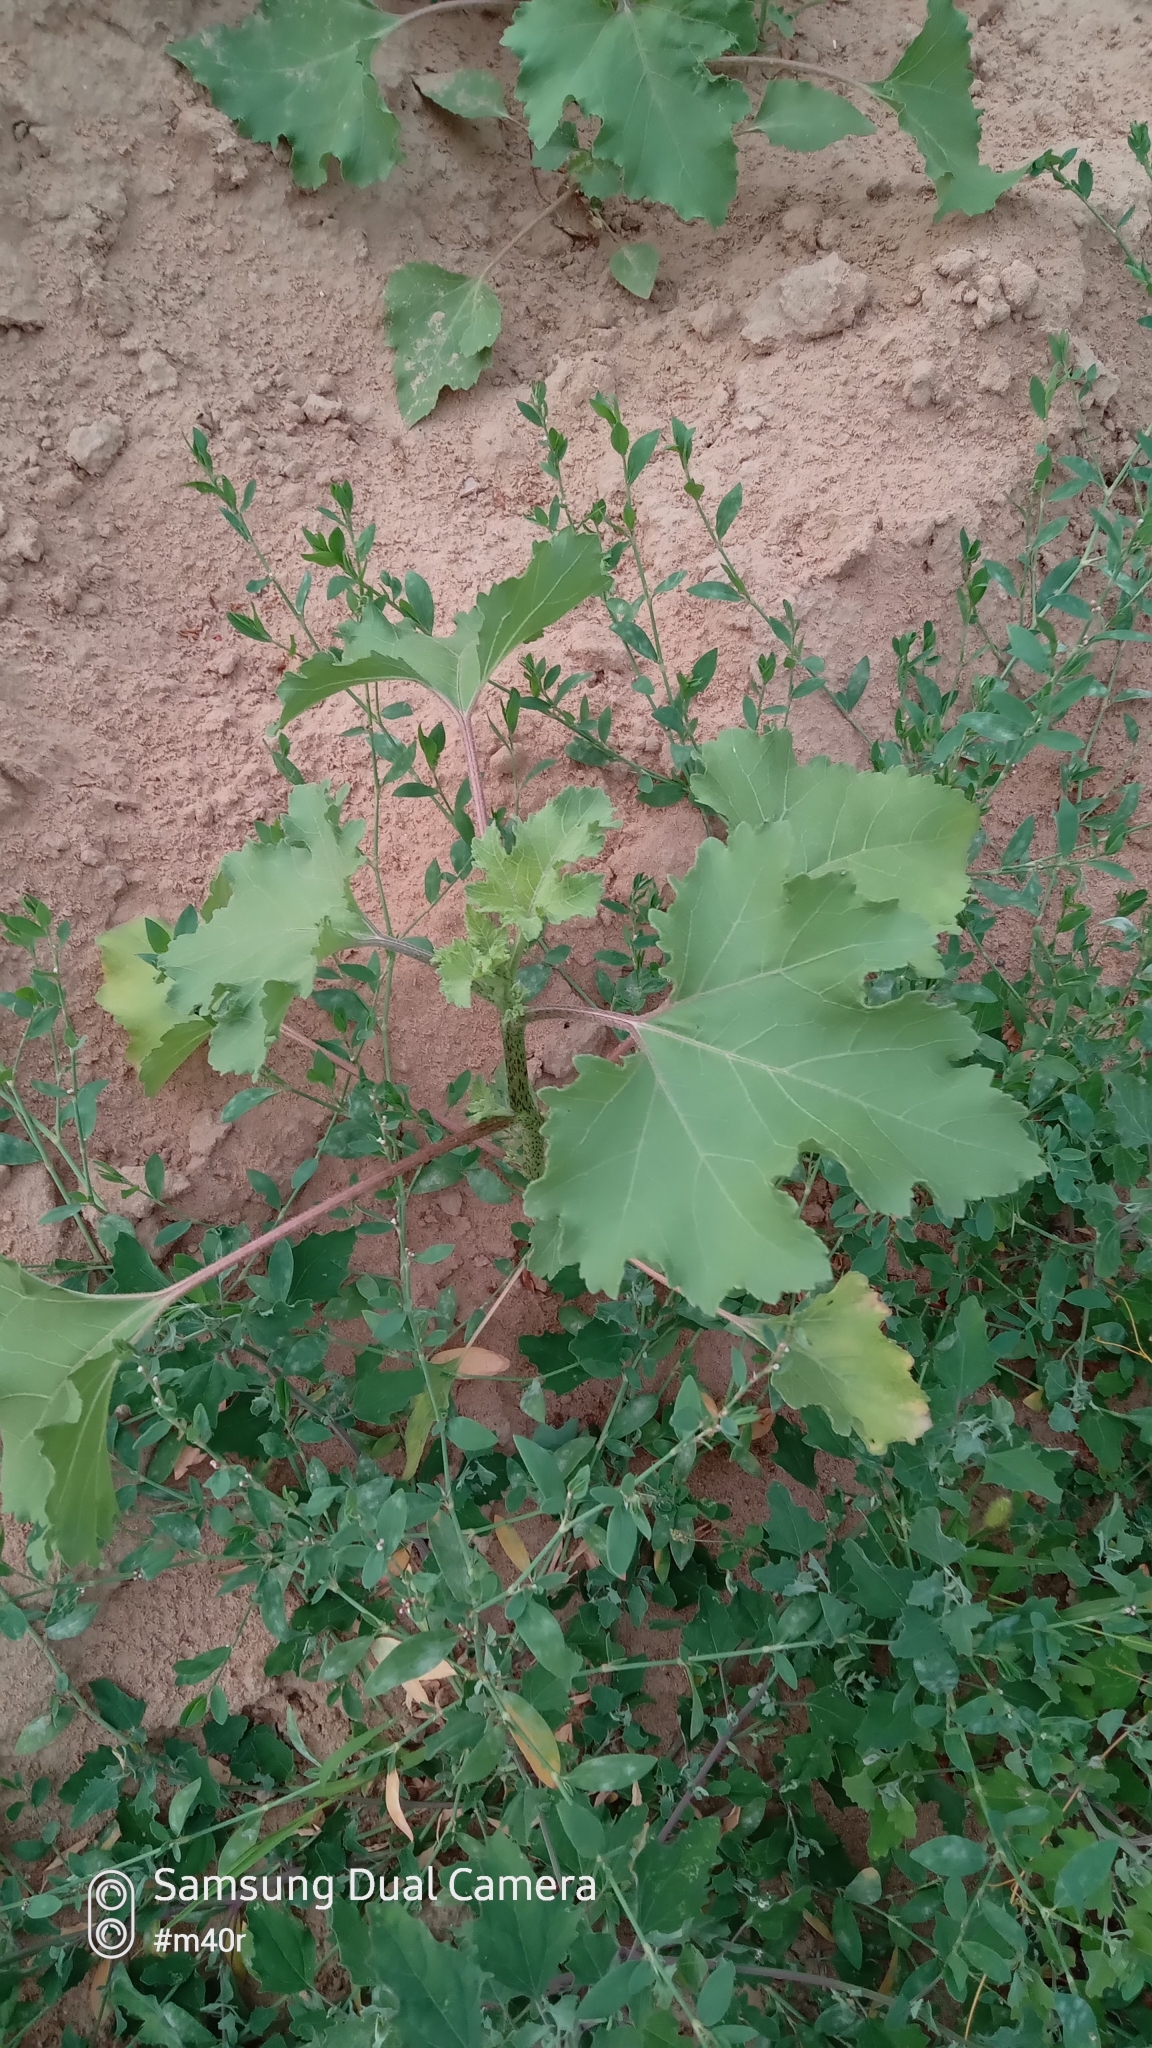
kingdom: Plantae
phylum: Tracheophyta
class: Magnoliopsida
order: Asterales
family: Asteraceae
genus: Xanthium
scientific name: Xanthium strumarium
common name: Rough cocklebur
